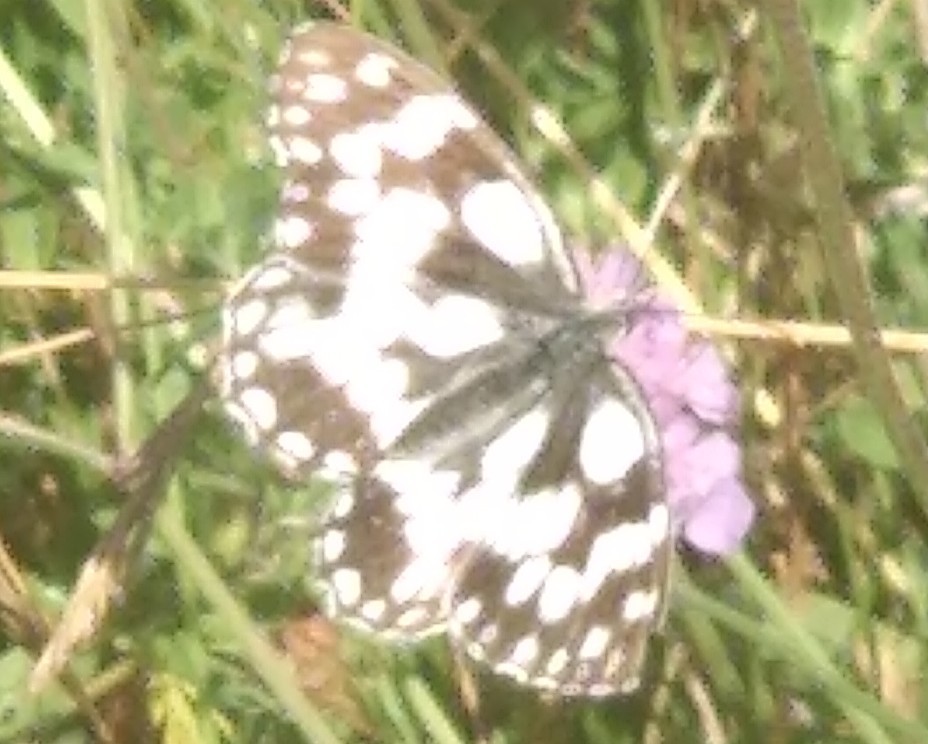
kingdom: Animalia
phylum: Arthropoda
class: Insecta
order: Lepidoptera
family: Nymphalidae
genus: Melanargia
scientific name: Melanargia galathea
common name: Marbled white
